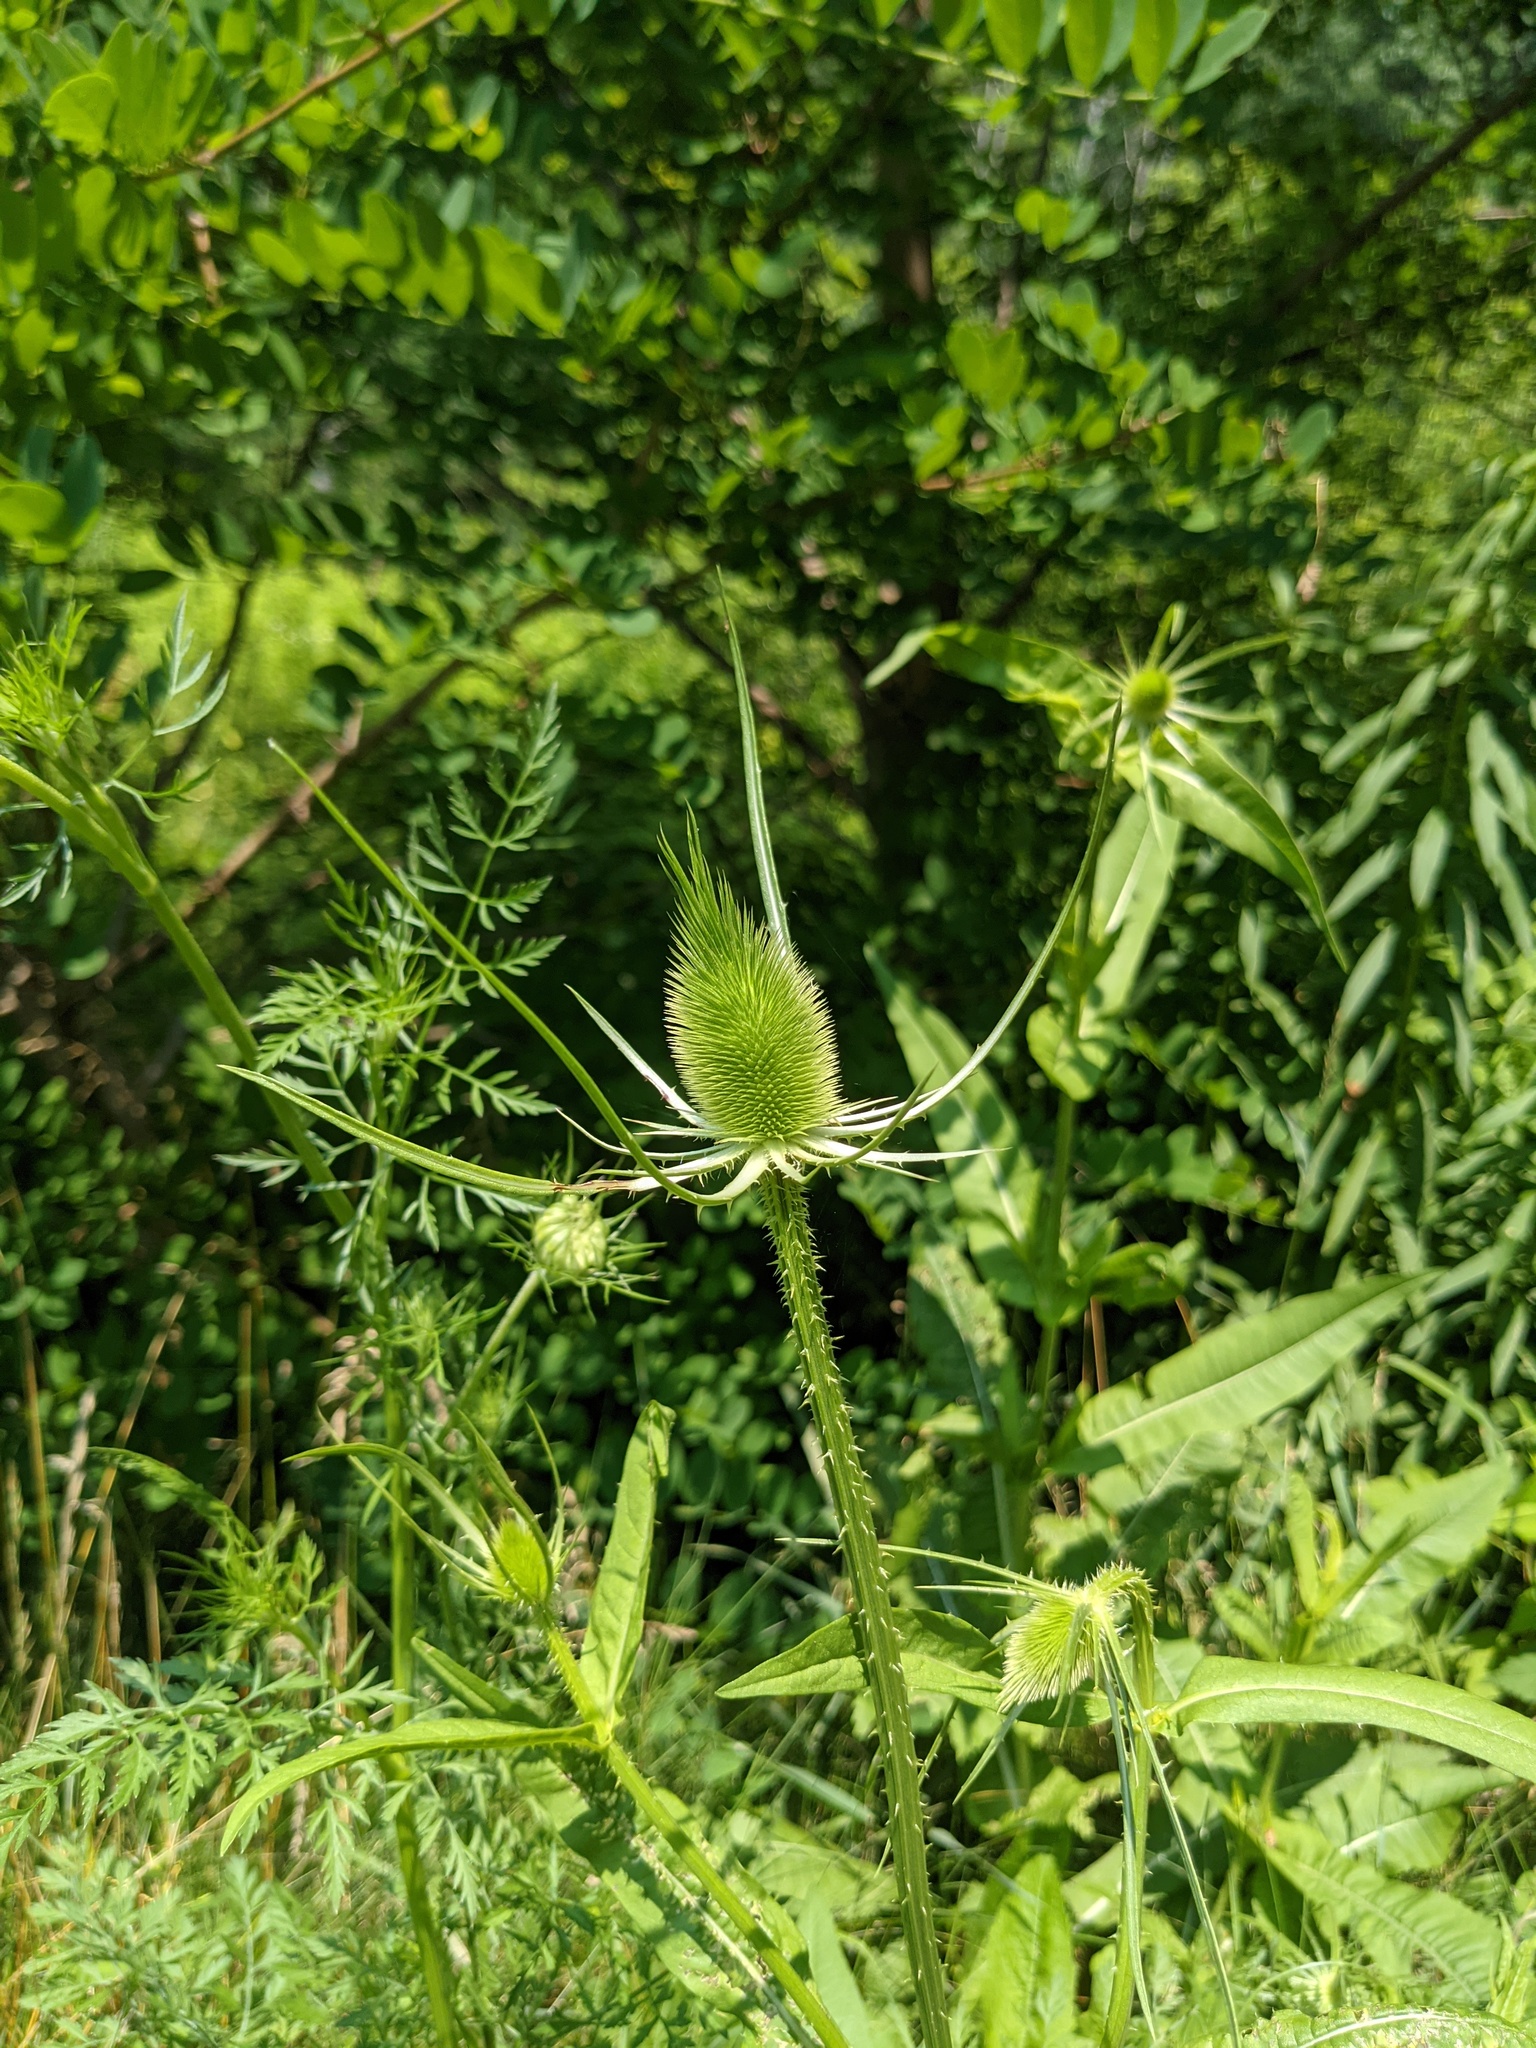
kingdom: Plantae
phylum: Tracheophyta
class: Magnoliopsida
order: Dipsacales
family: Caprifoliaceae
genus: Dipsacus
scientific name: Dipsacus fullonum
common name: Teasel
